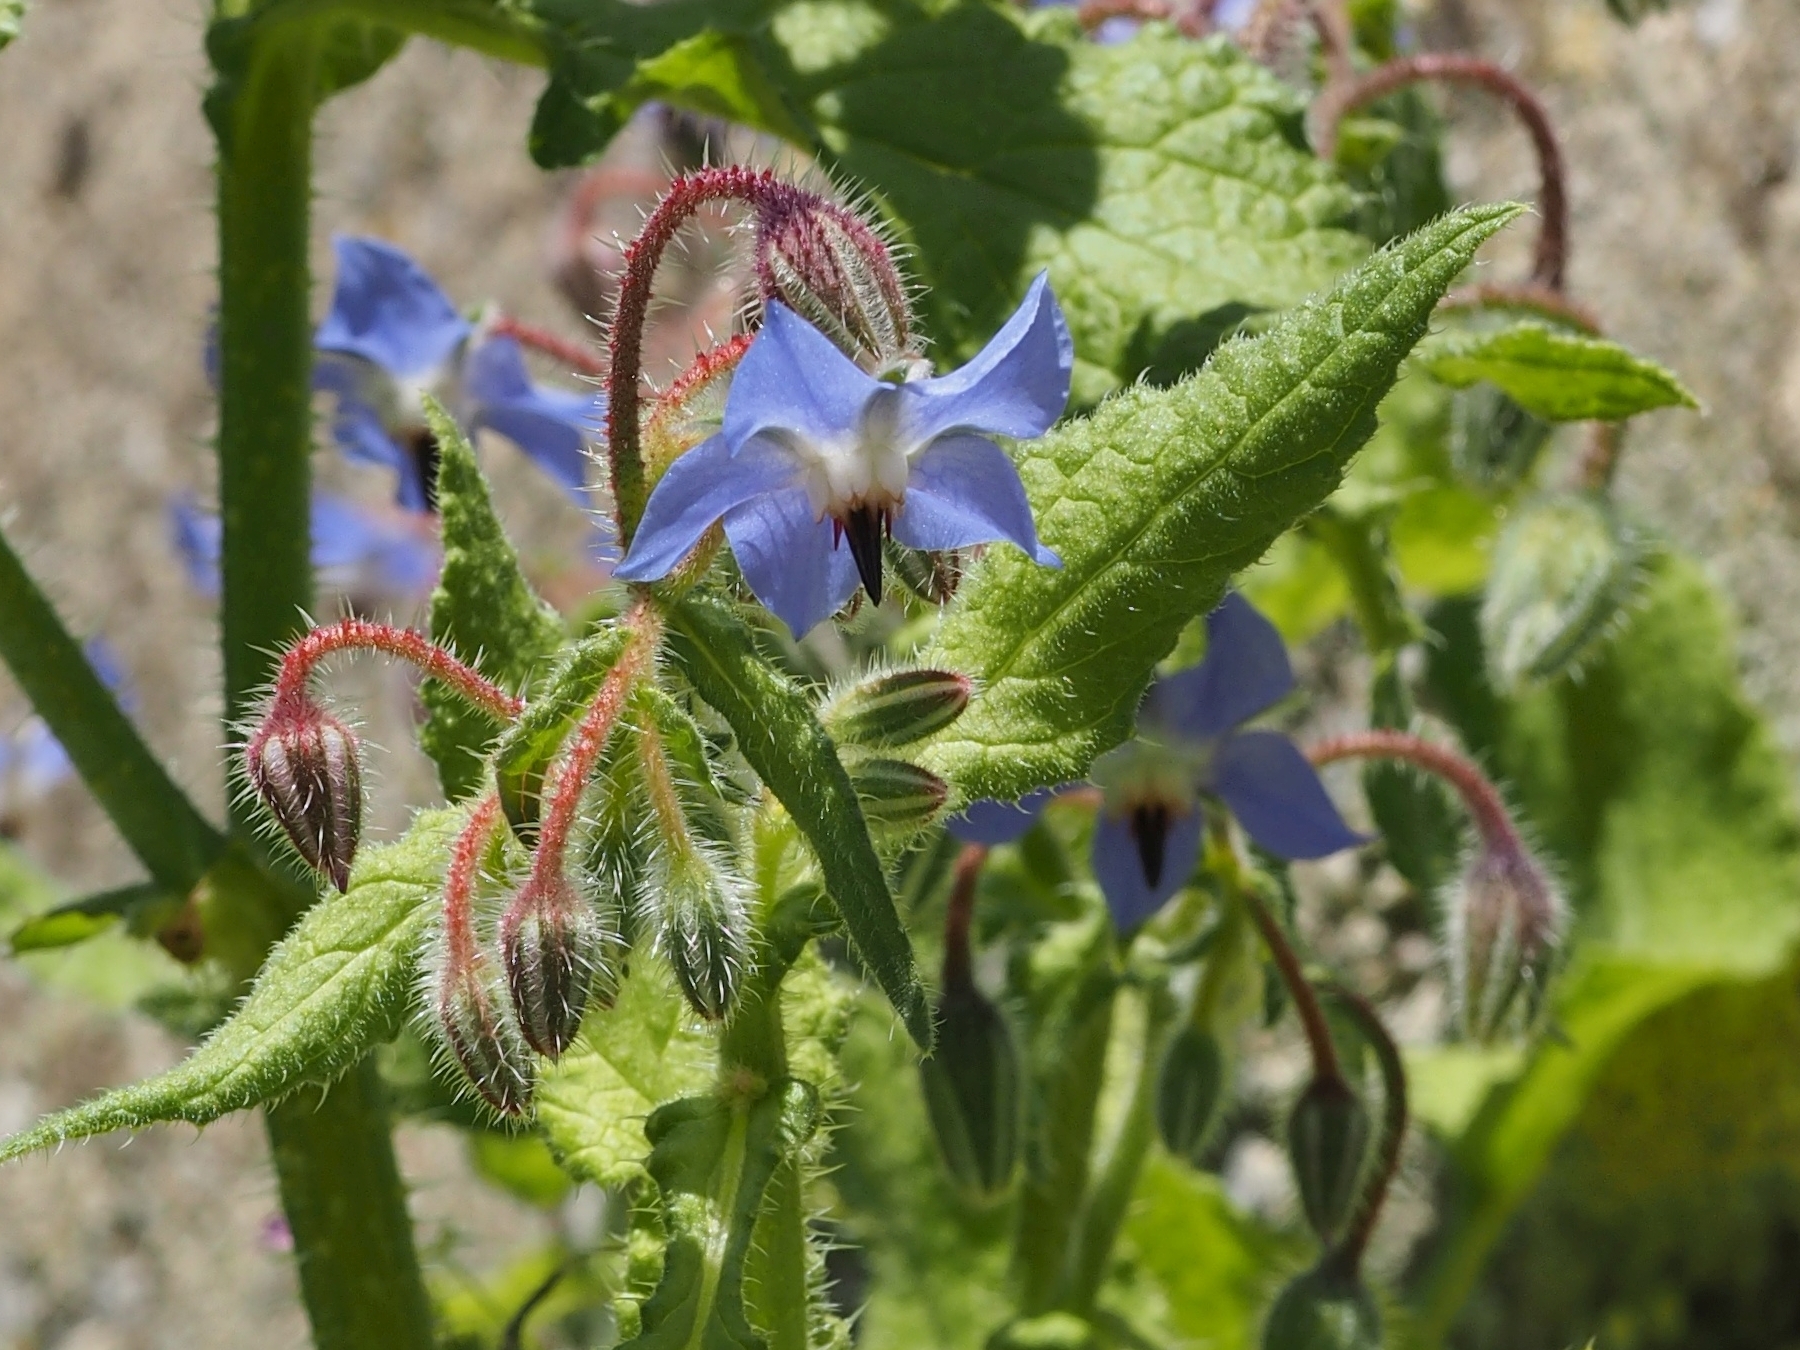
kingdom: Plantae
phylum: Tracheophyta
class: Magnoliopsida
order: Boraginales
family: Boraginaceae
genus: Borago
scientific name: Borago officinalis
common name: Borage
